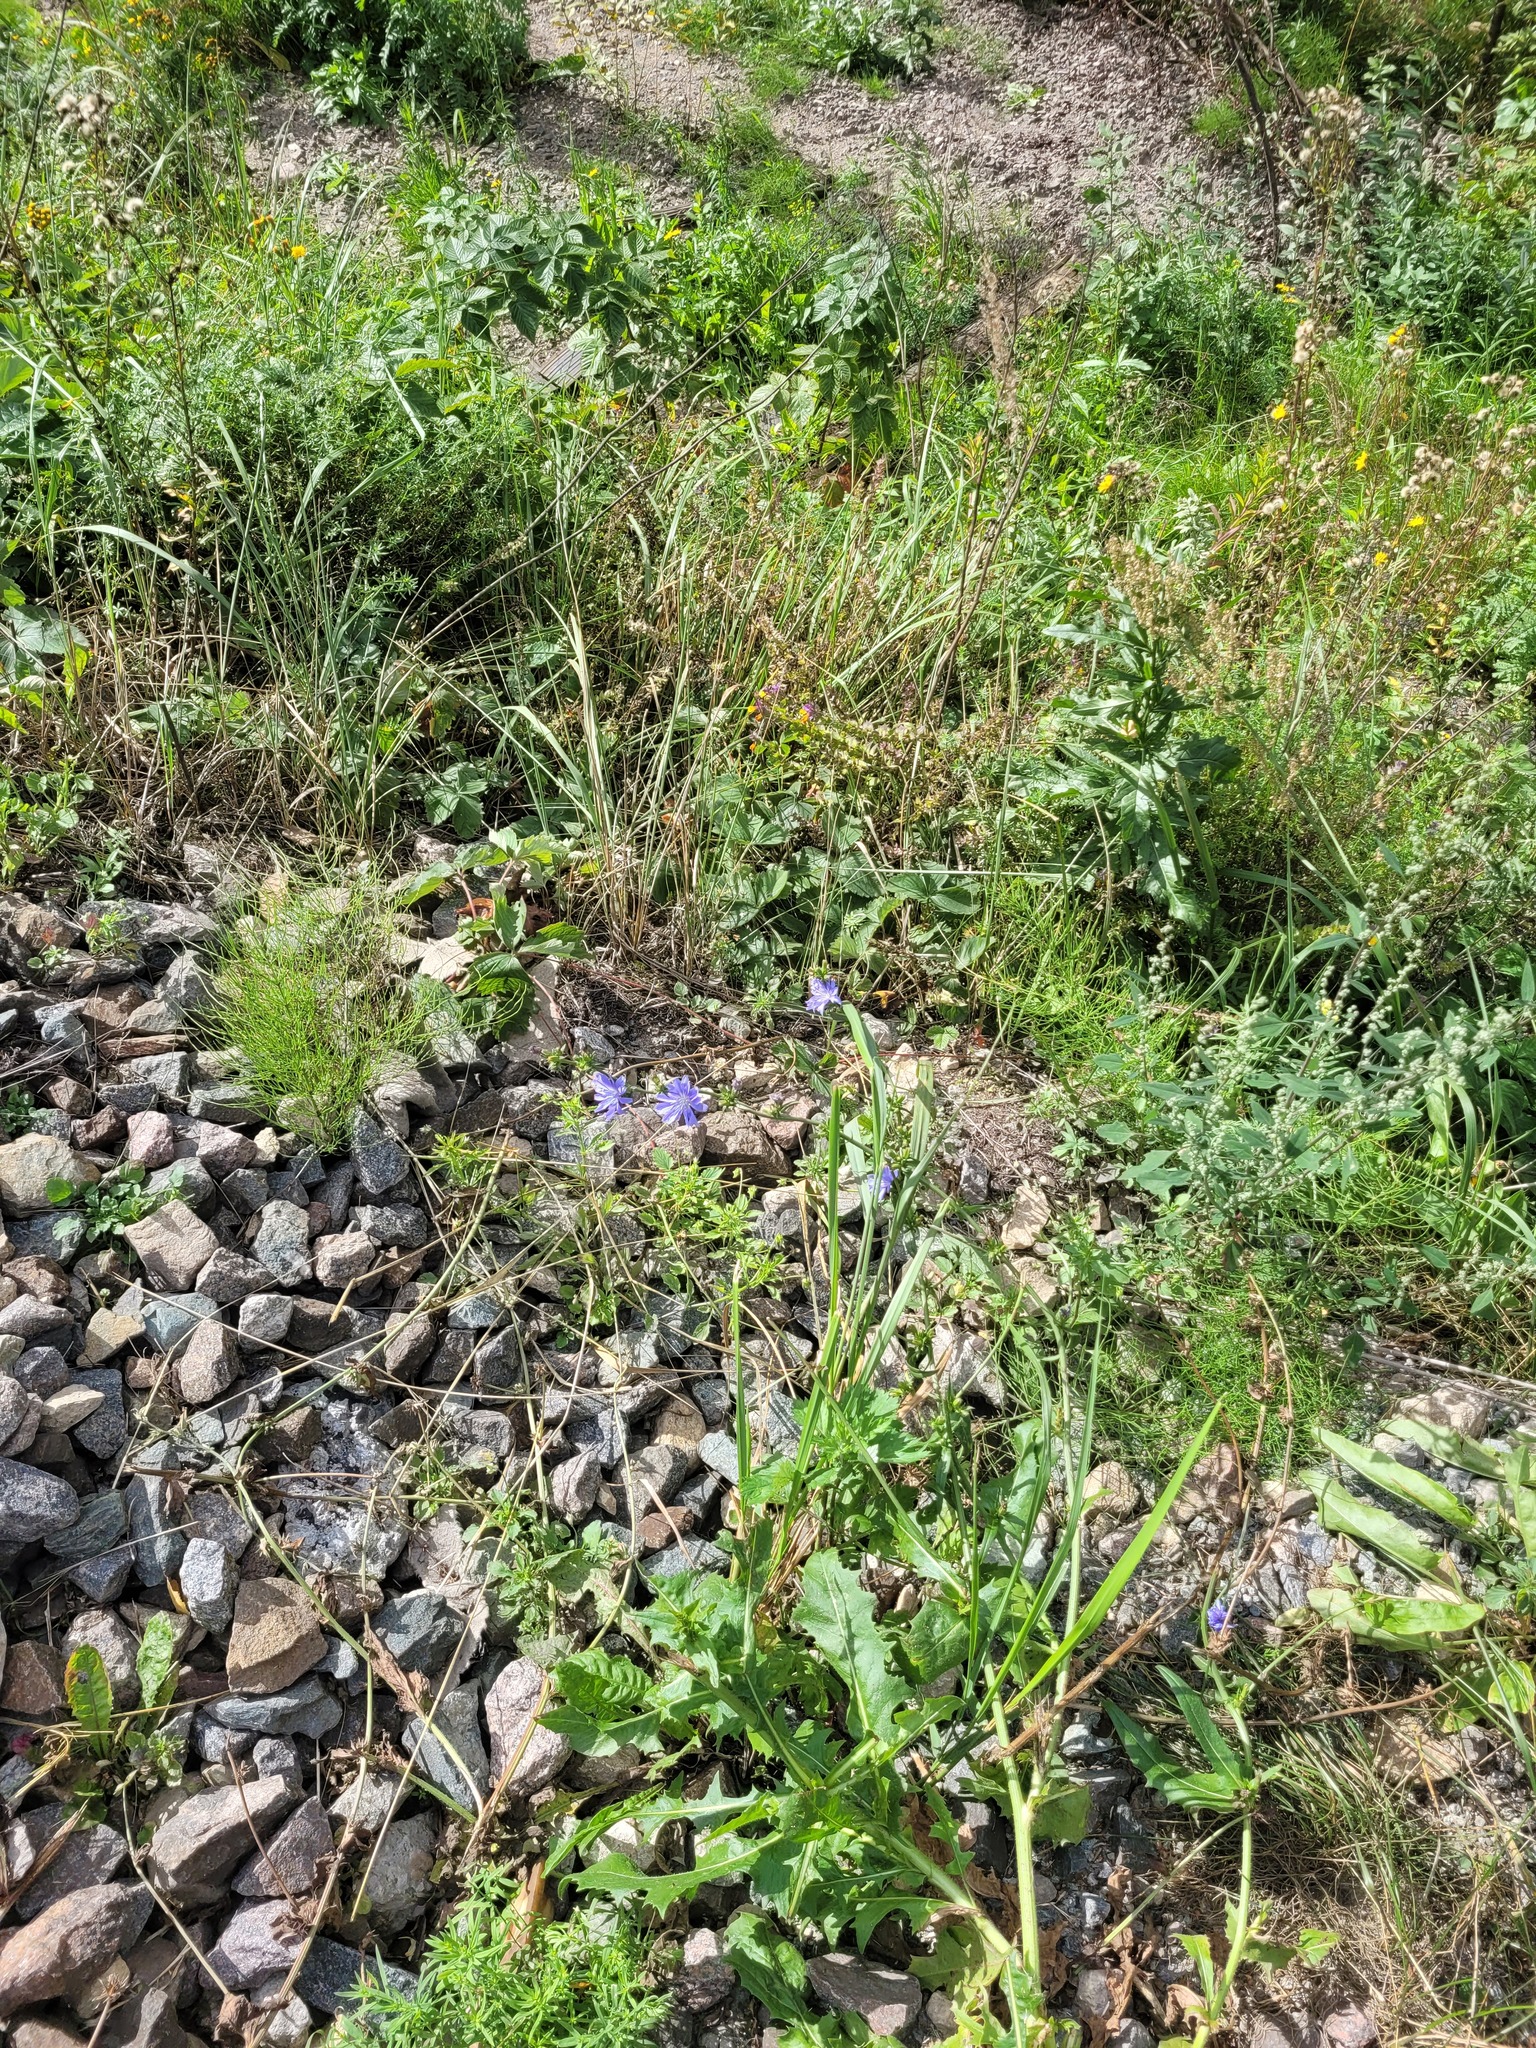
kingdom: Plantae
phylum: Tracheophyta
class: Magnoliopsida
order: Asterales
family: Asteraceae
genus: Cichorium
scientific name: Cichorium intybus
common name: Chicory
